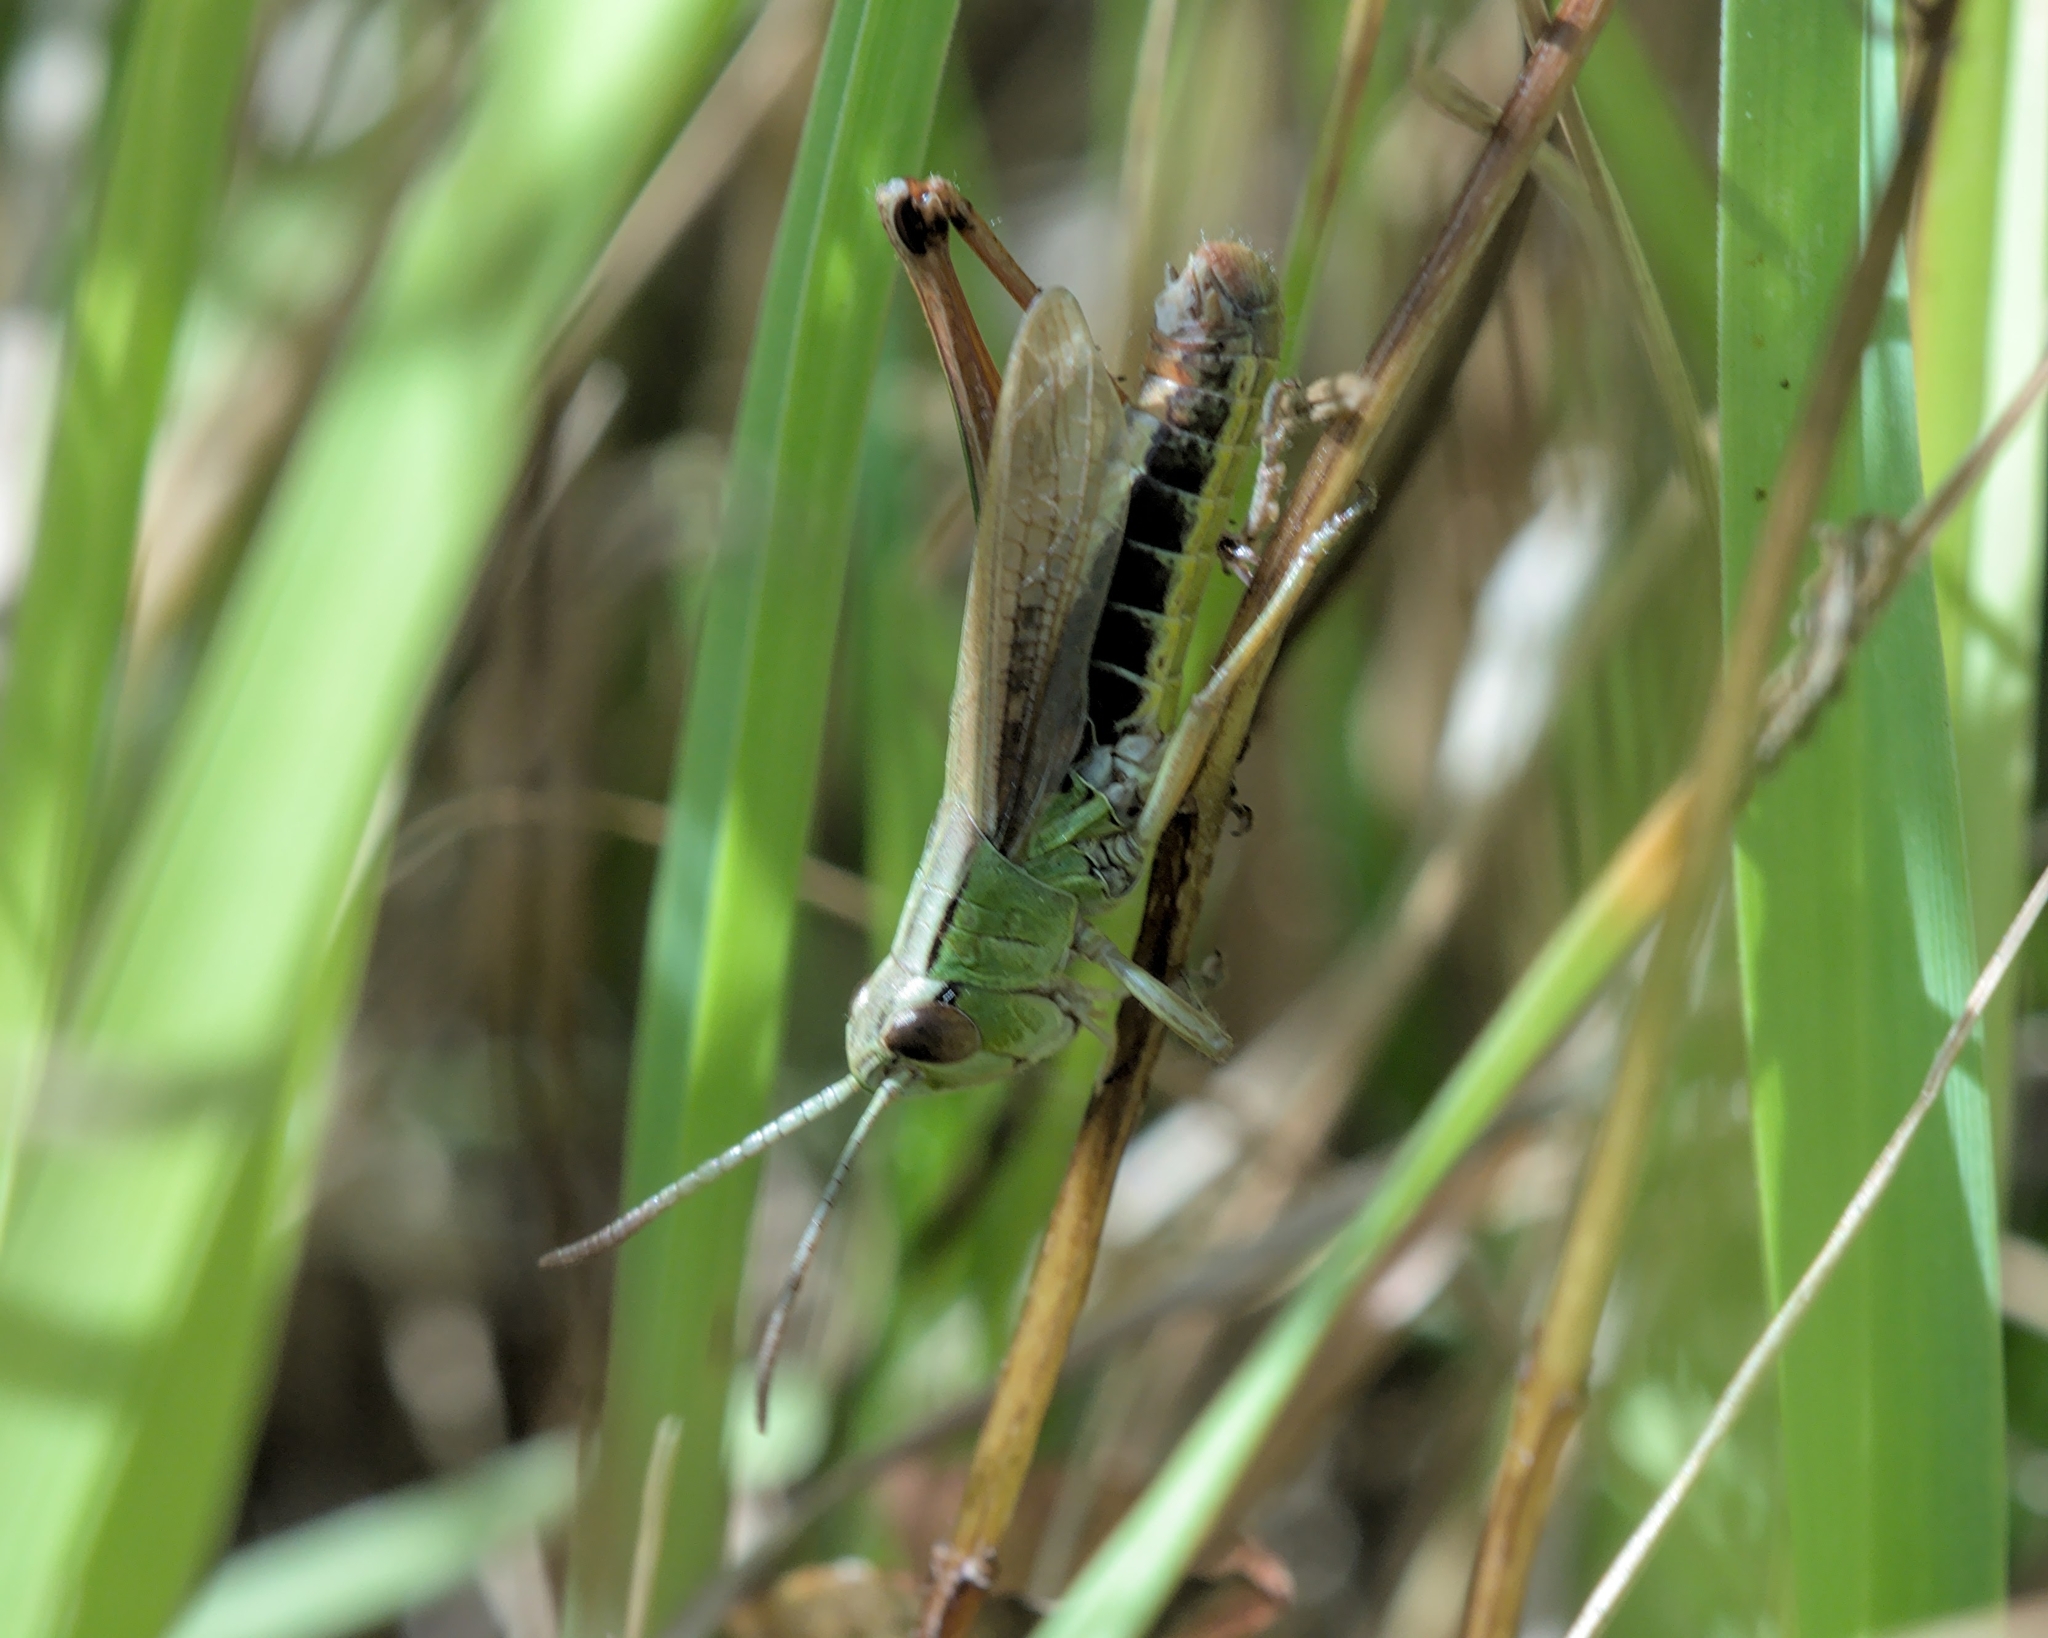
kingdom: Animalia
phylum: Arthropoda
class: Insecta
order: Orthoptera
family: Acrididae
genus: Pseudochorthippus
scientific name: Pseudochorthippus parallelus
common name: Meadow grasshopper
